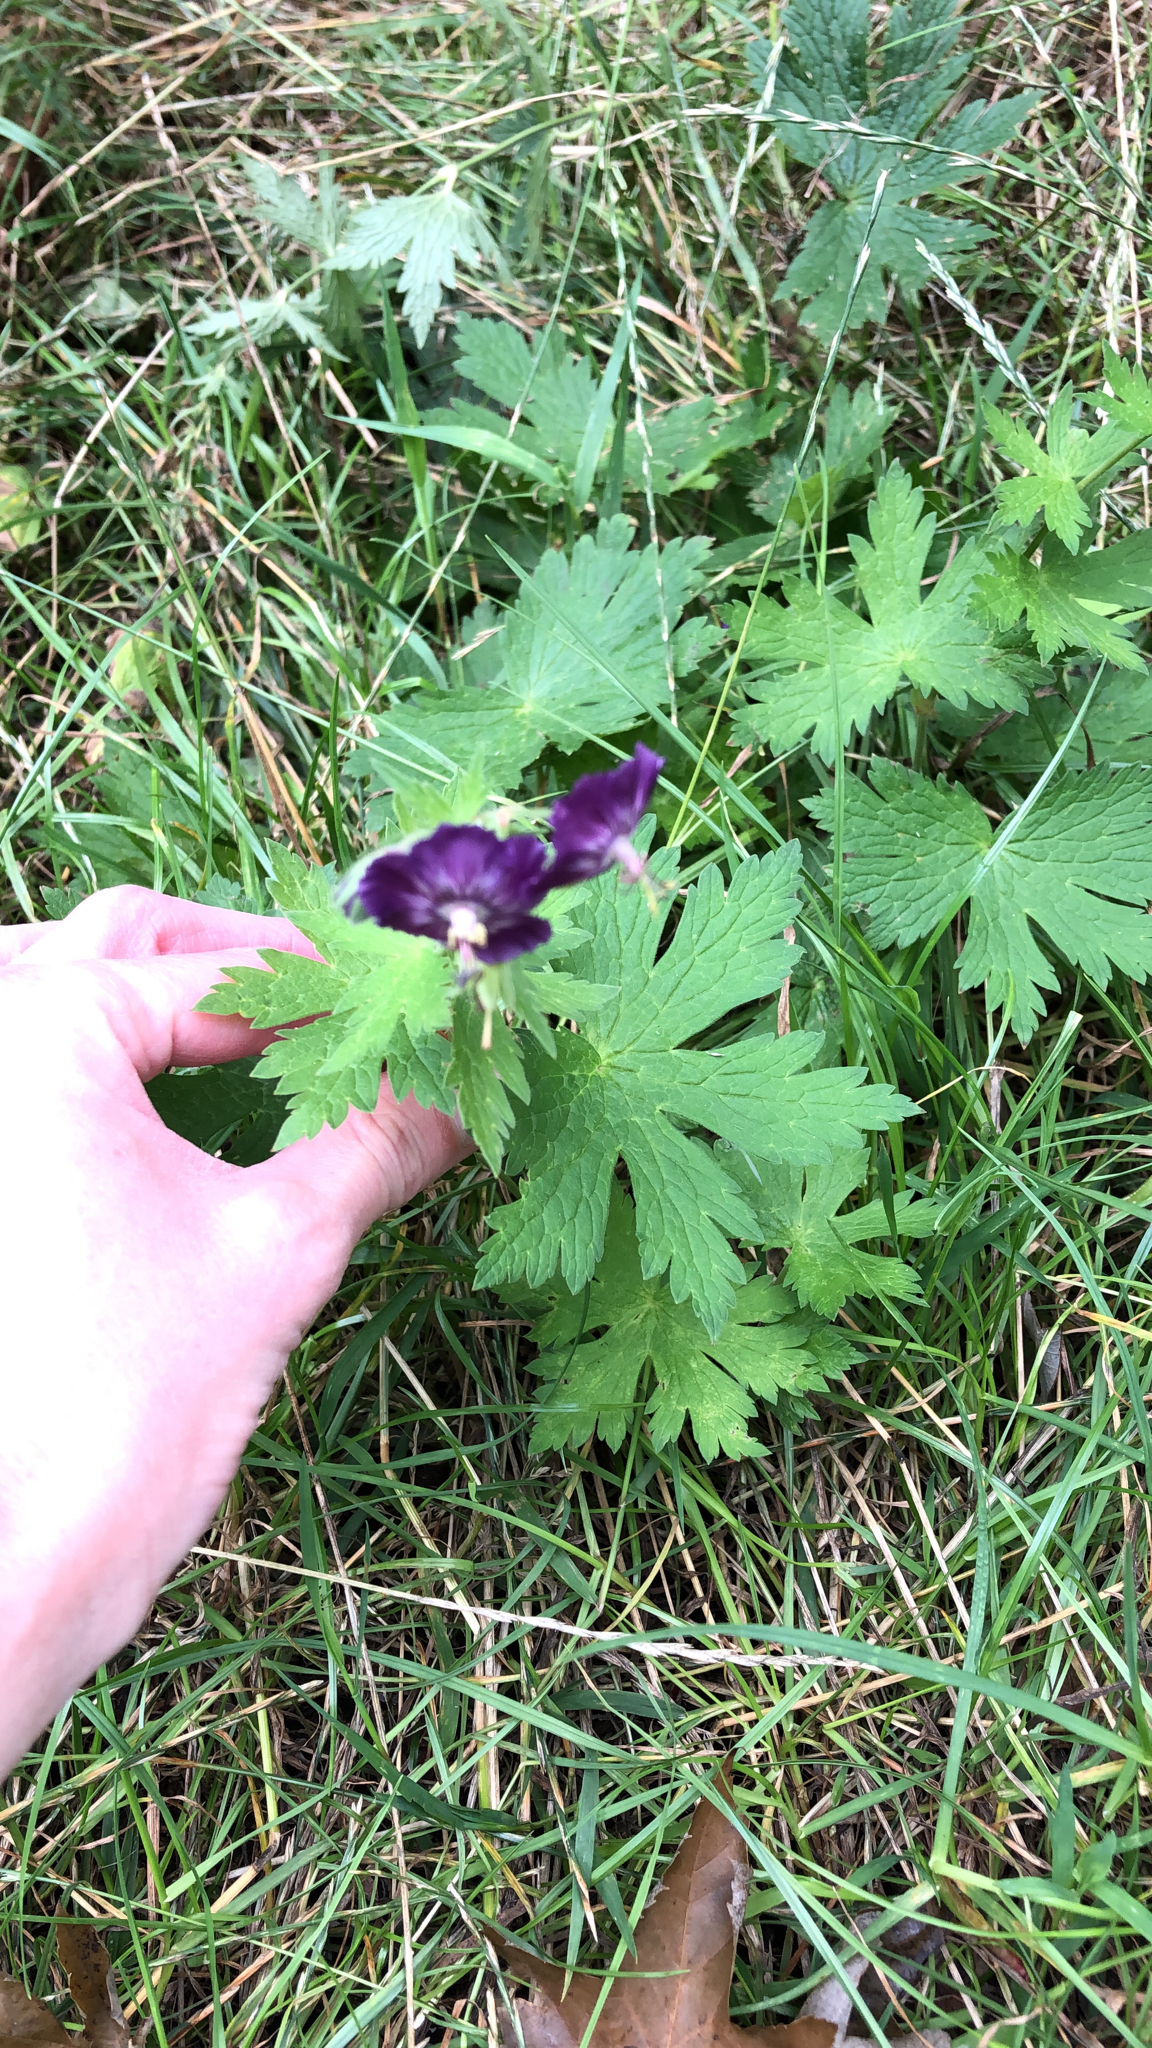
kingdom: Plantae
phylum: Tracheophyta
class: Magnoliopsida
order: Geraniales
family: Geraniaceae
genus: Geranium
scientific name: Geranium phaeum
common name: Dusky crane's-bill
